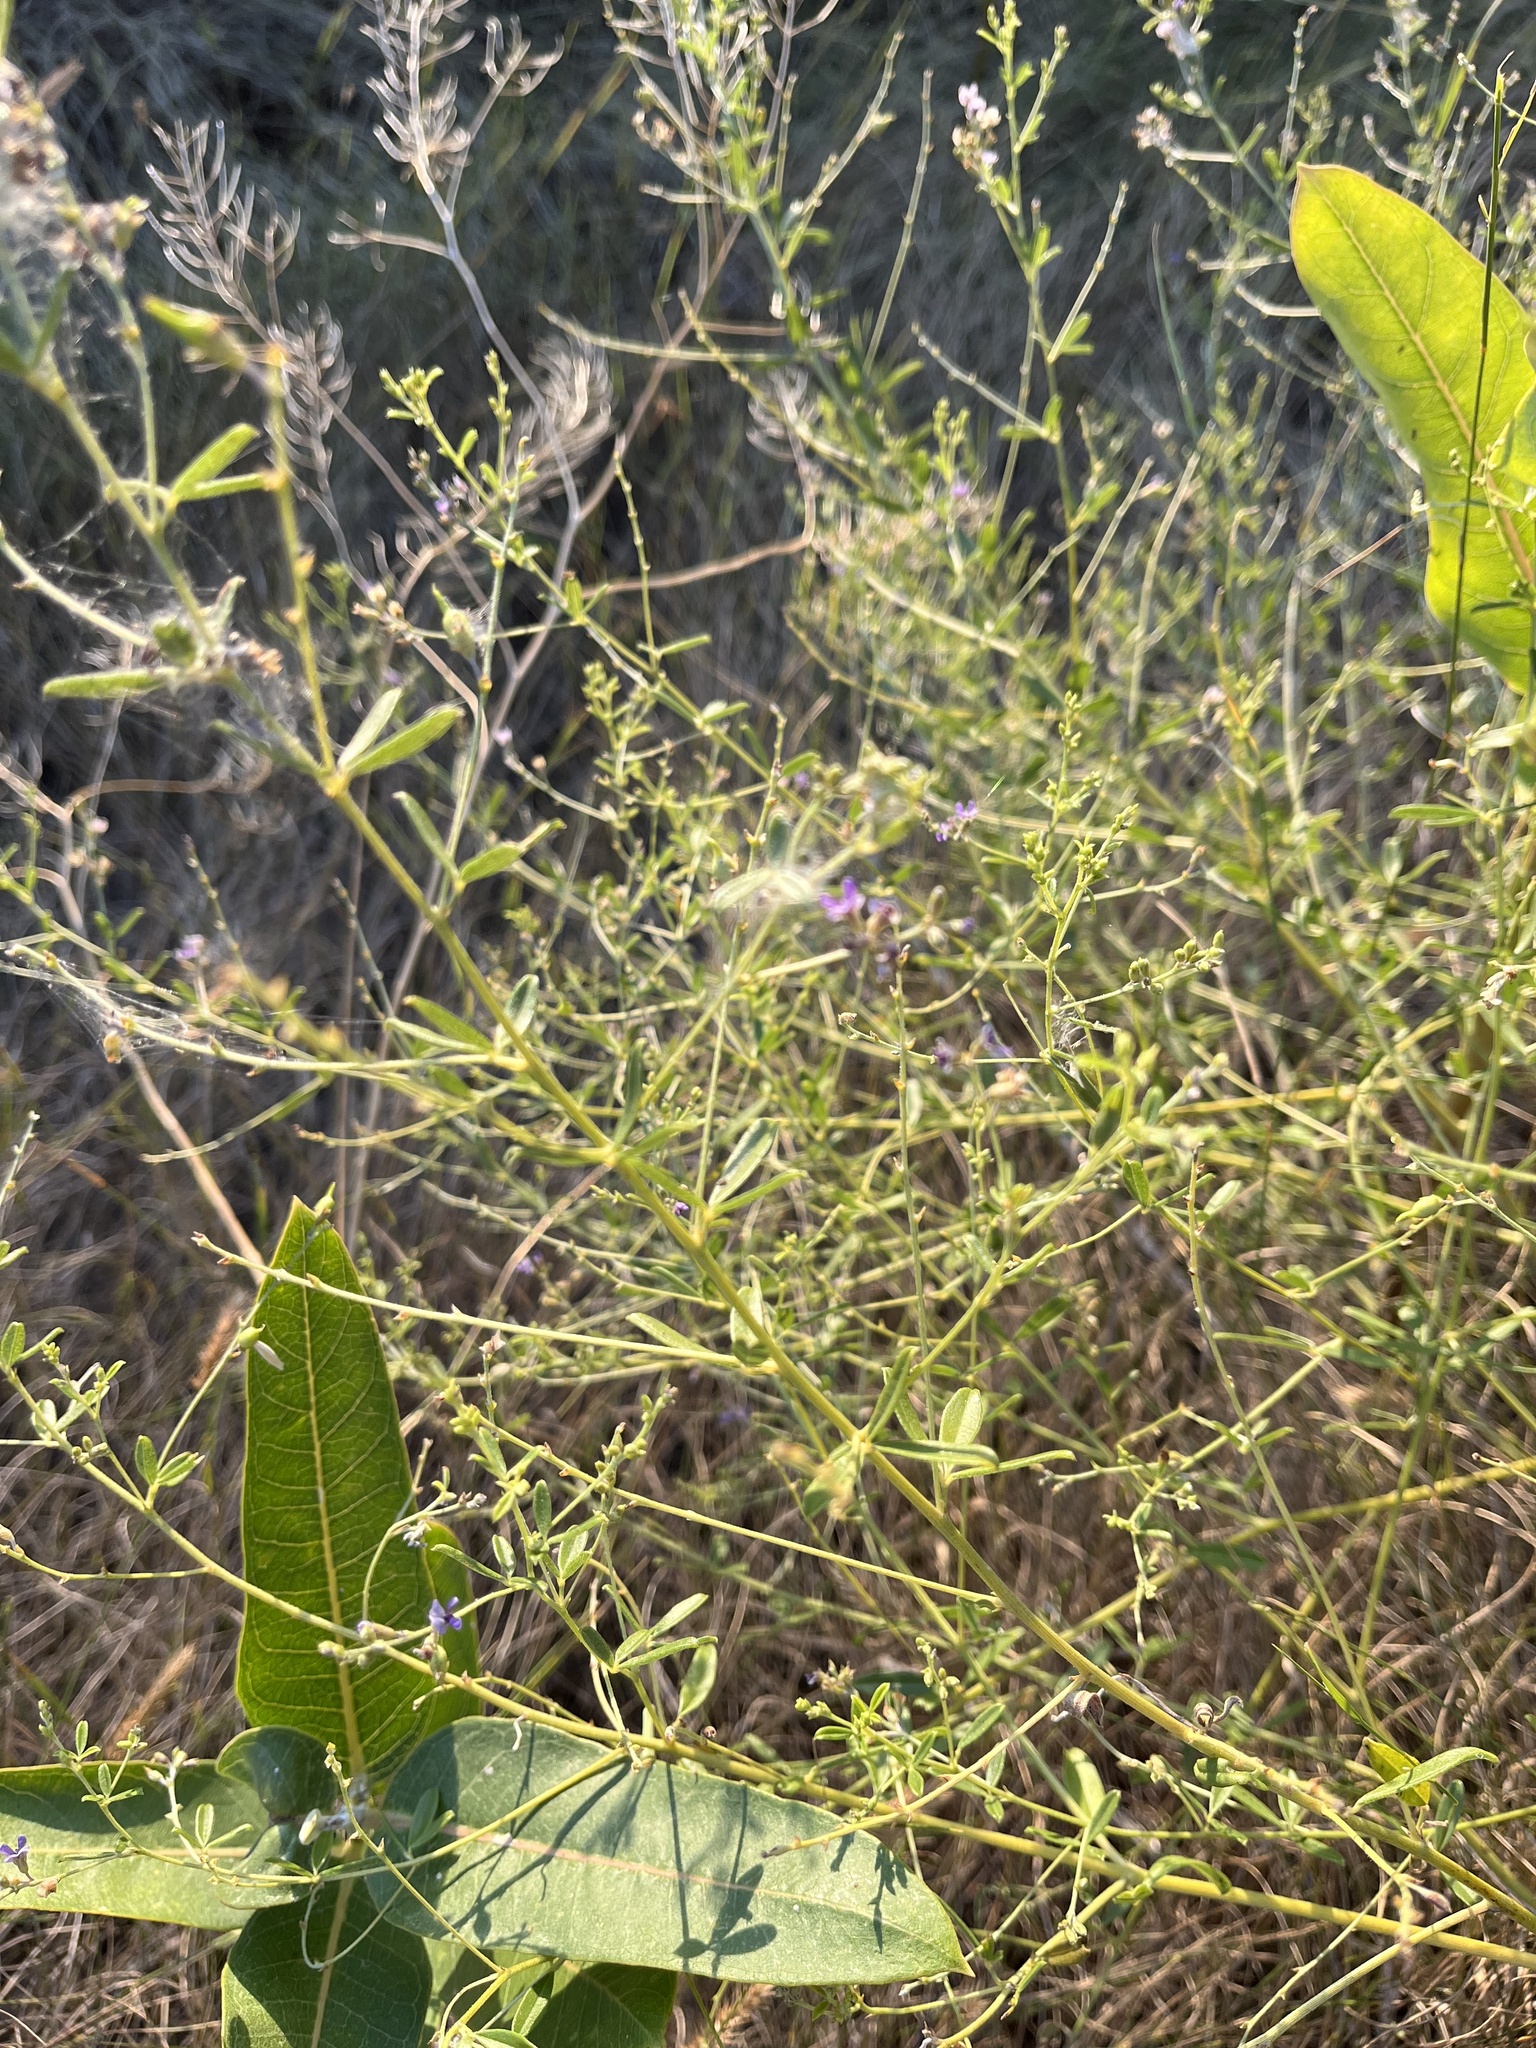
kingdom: Plantae
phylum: Tracheophyta
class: Magnoliopsida
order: Fabales
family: Fabaceae
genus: Pediomelum
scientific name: Pediomelum tenuiflorum
